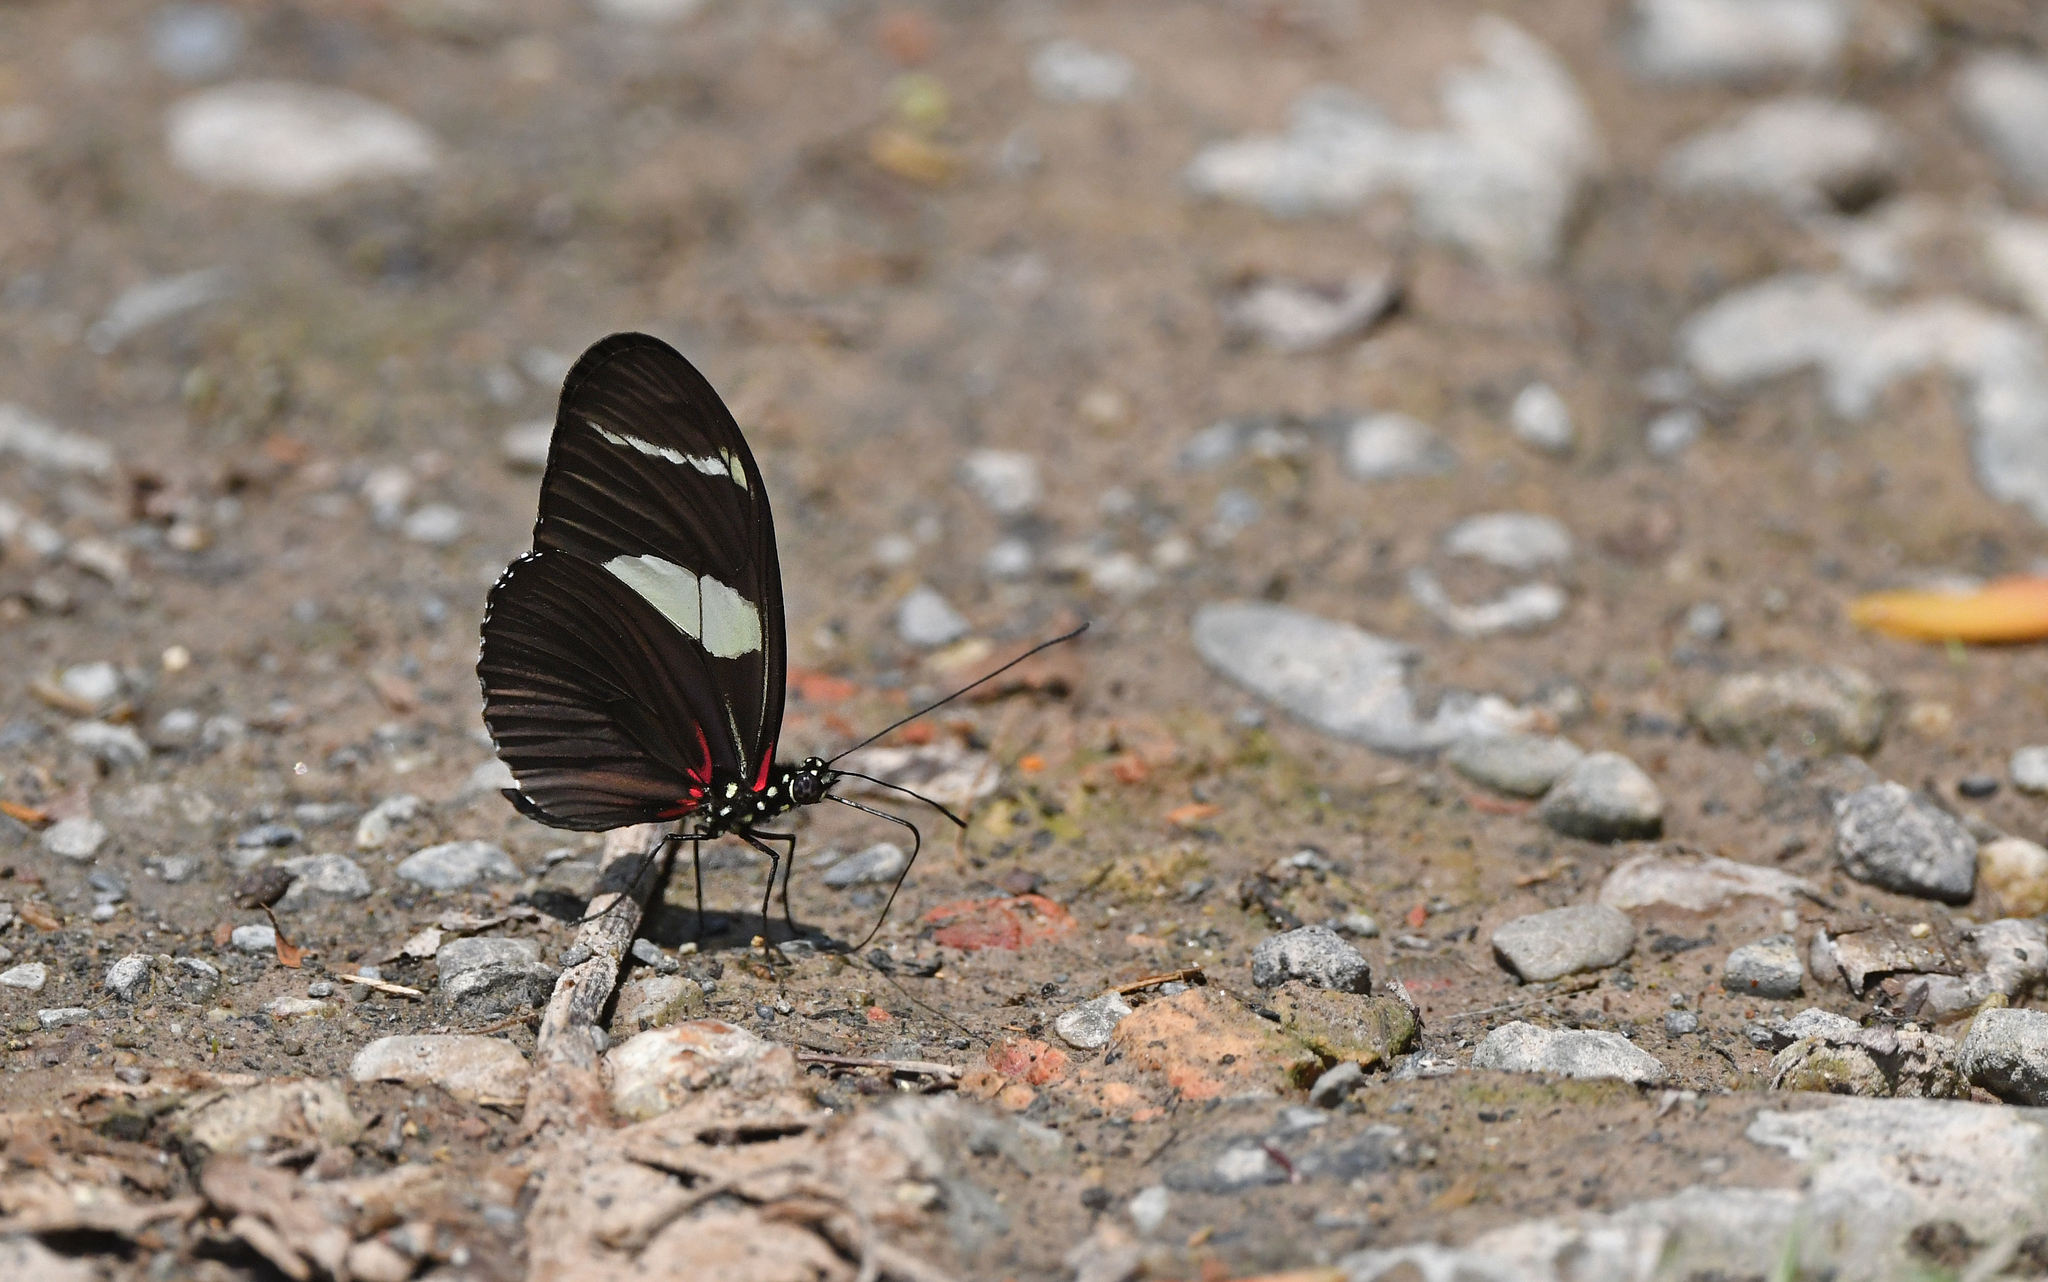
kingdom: Animalia
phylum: Arthropoda
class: Insecta
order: Lepidoptera
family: Nymphalidae
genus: Heliconius
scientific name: Heliconius wallacei
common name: Wallace's longwing
